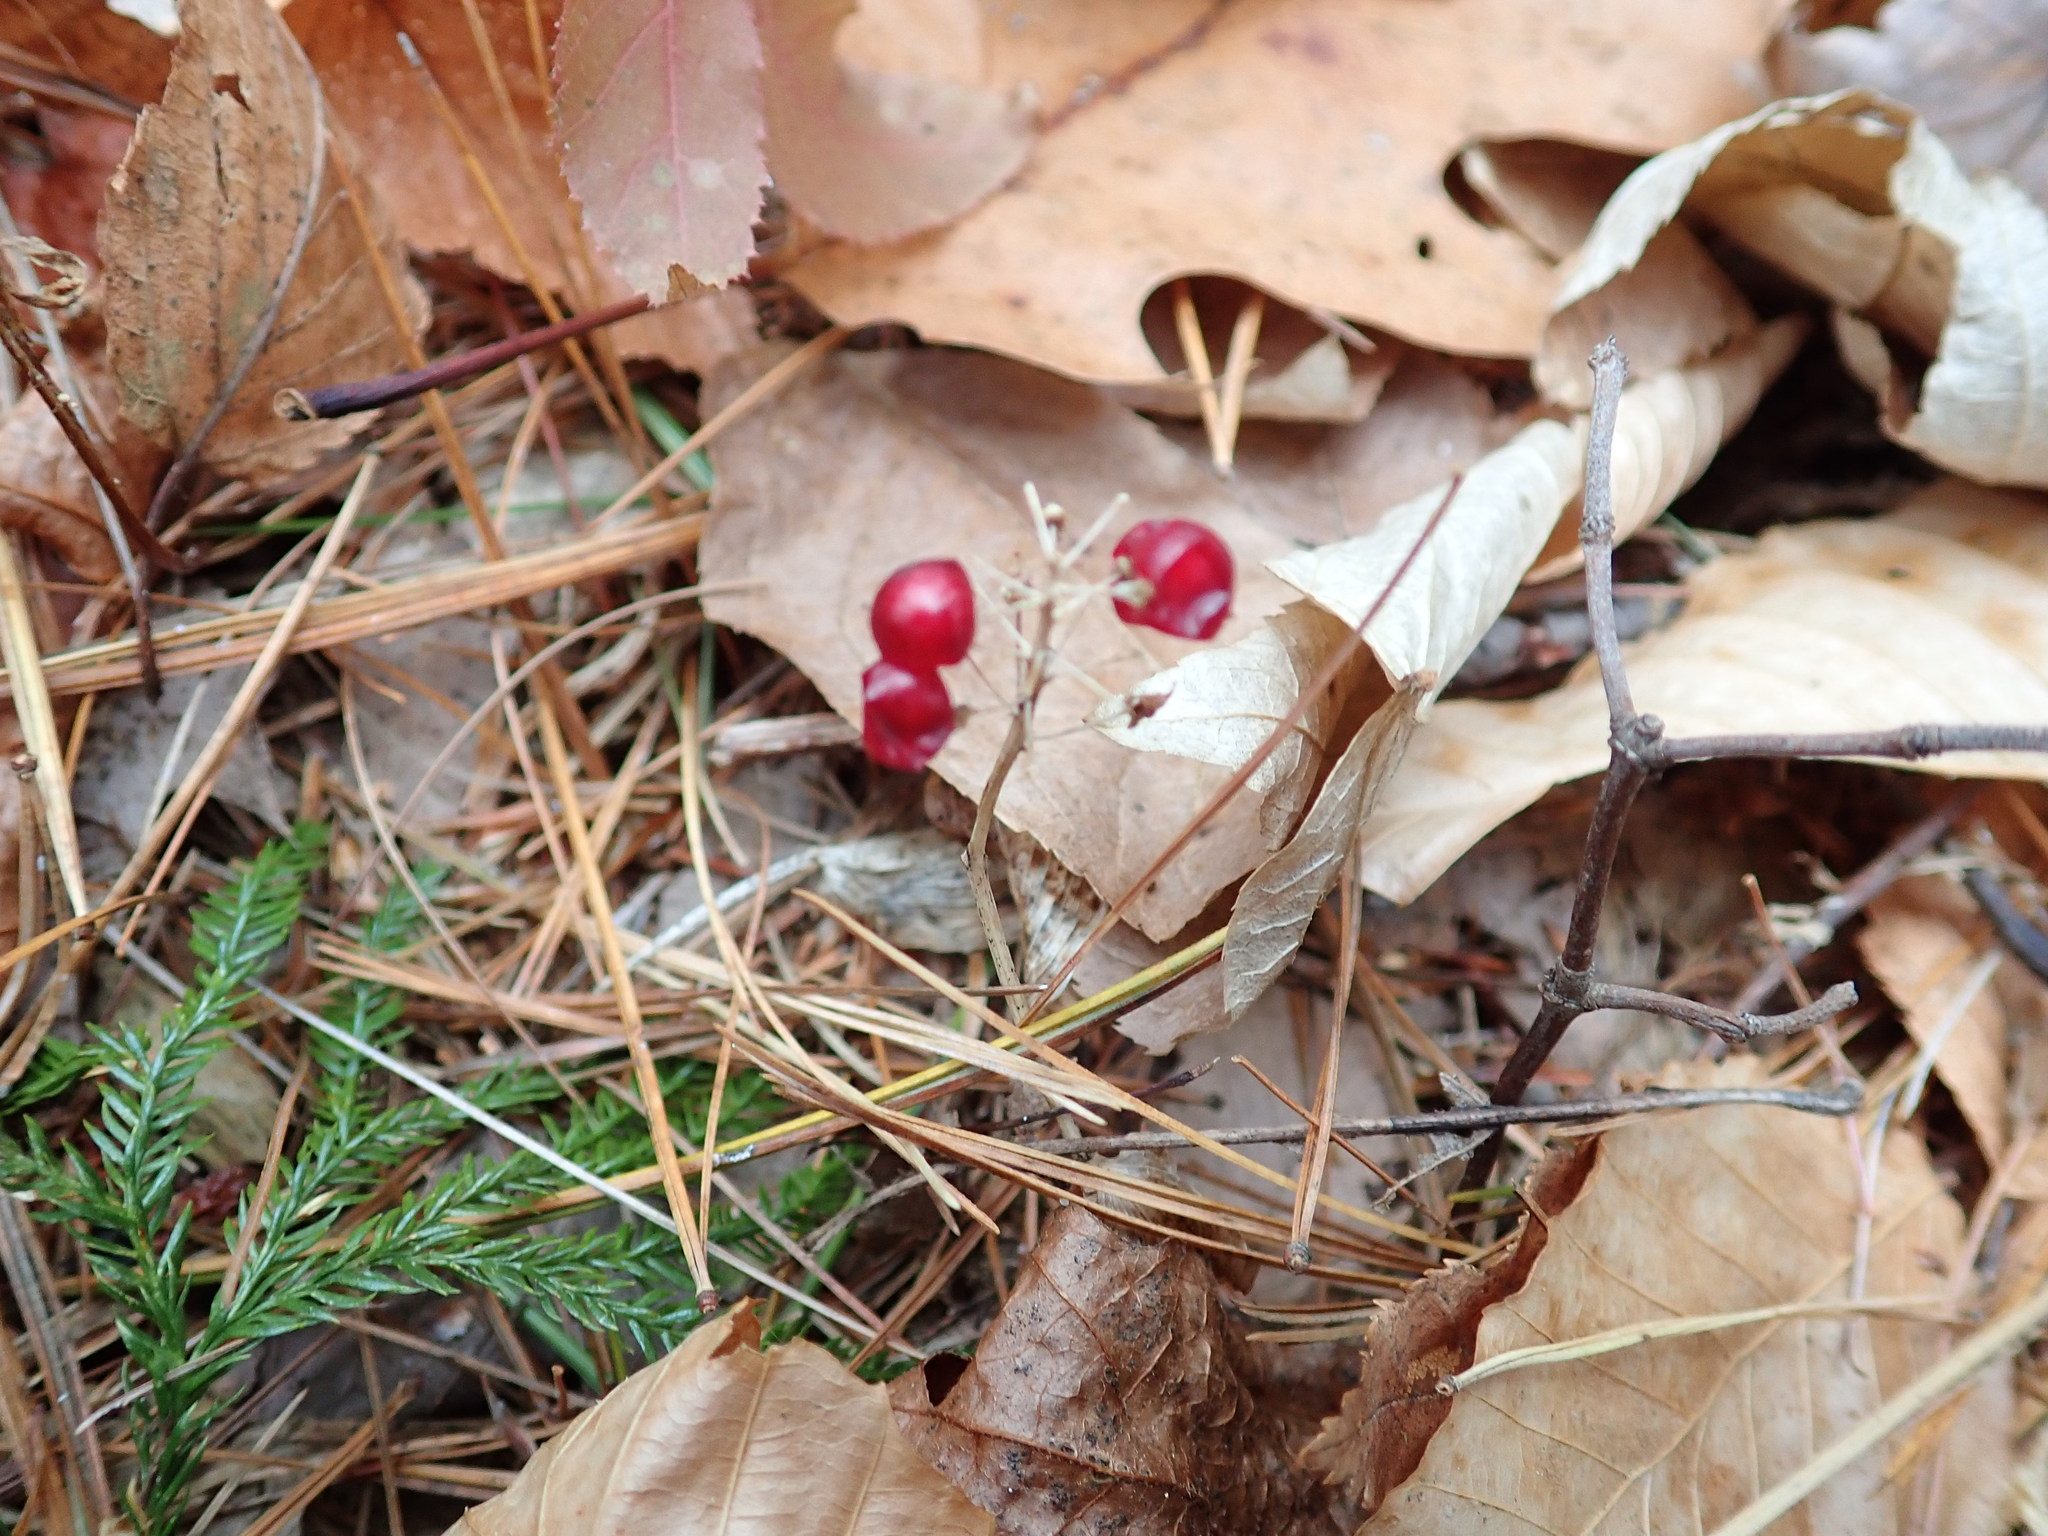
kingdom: Plantae
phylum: Tracheophyta
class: Liliopsida
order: Asparagales
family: Asparagaceae
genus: Maianthemum
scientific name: Maianthemum canadense
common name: False lily-of-the-valley
